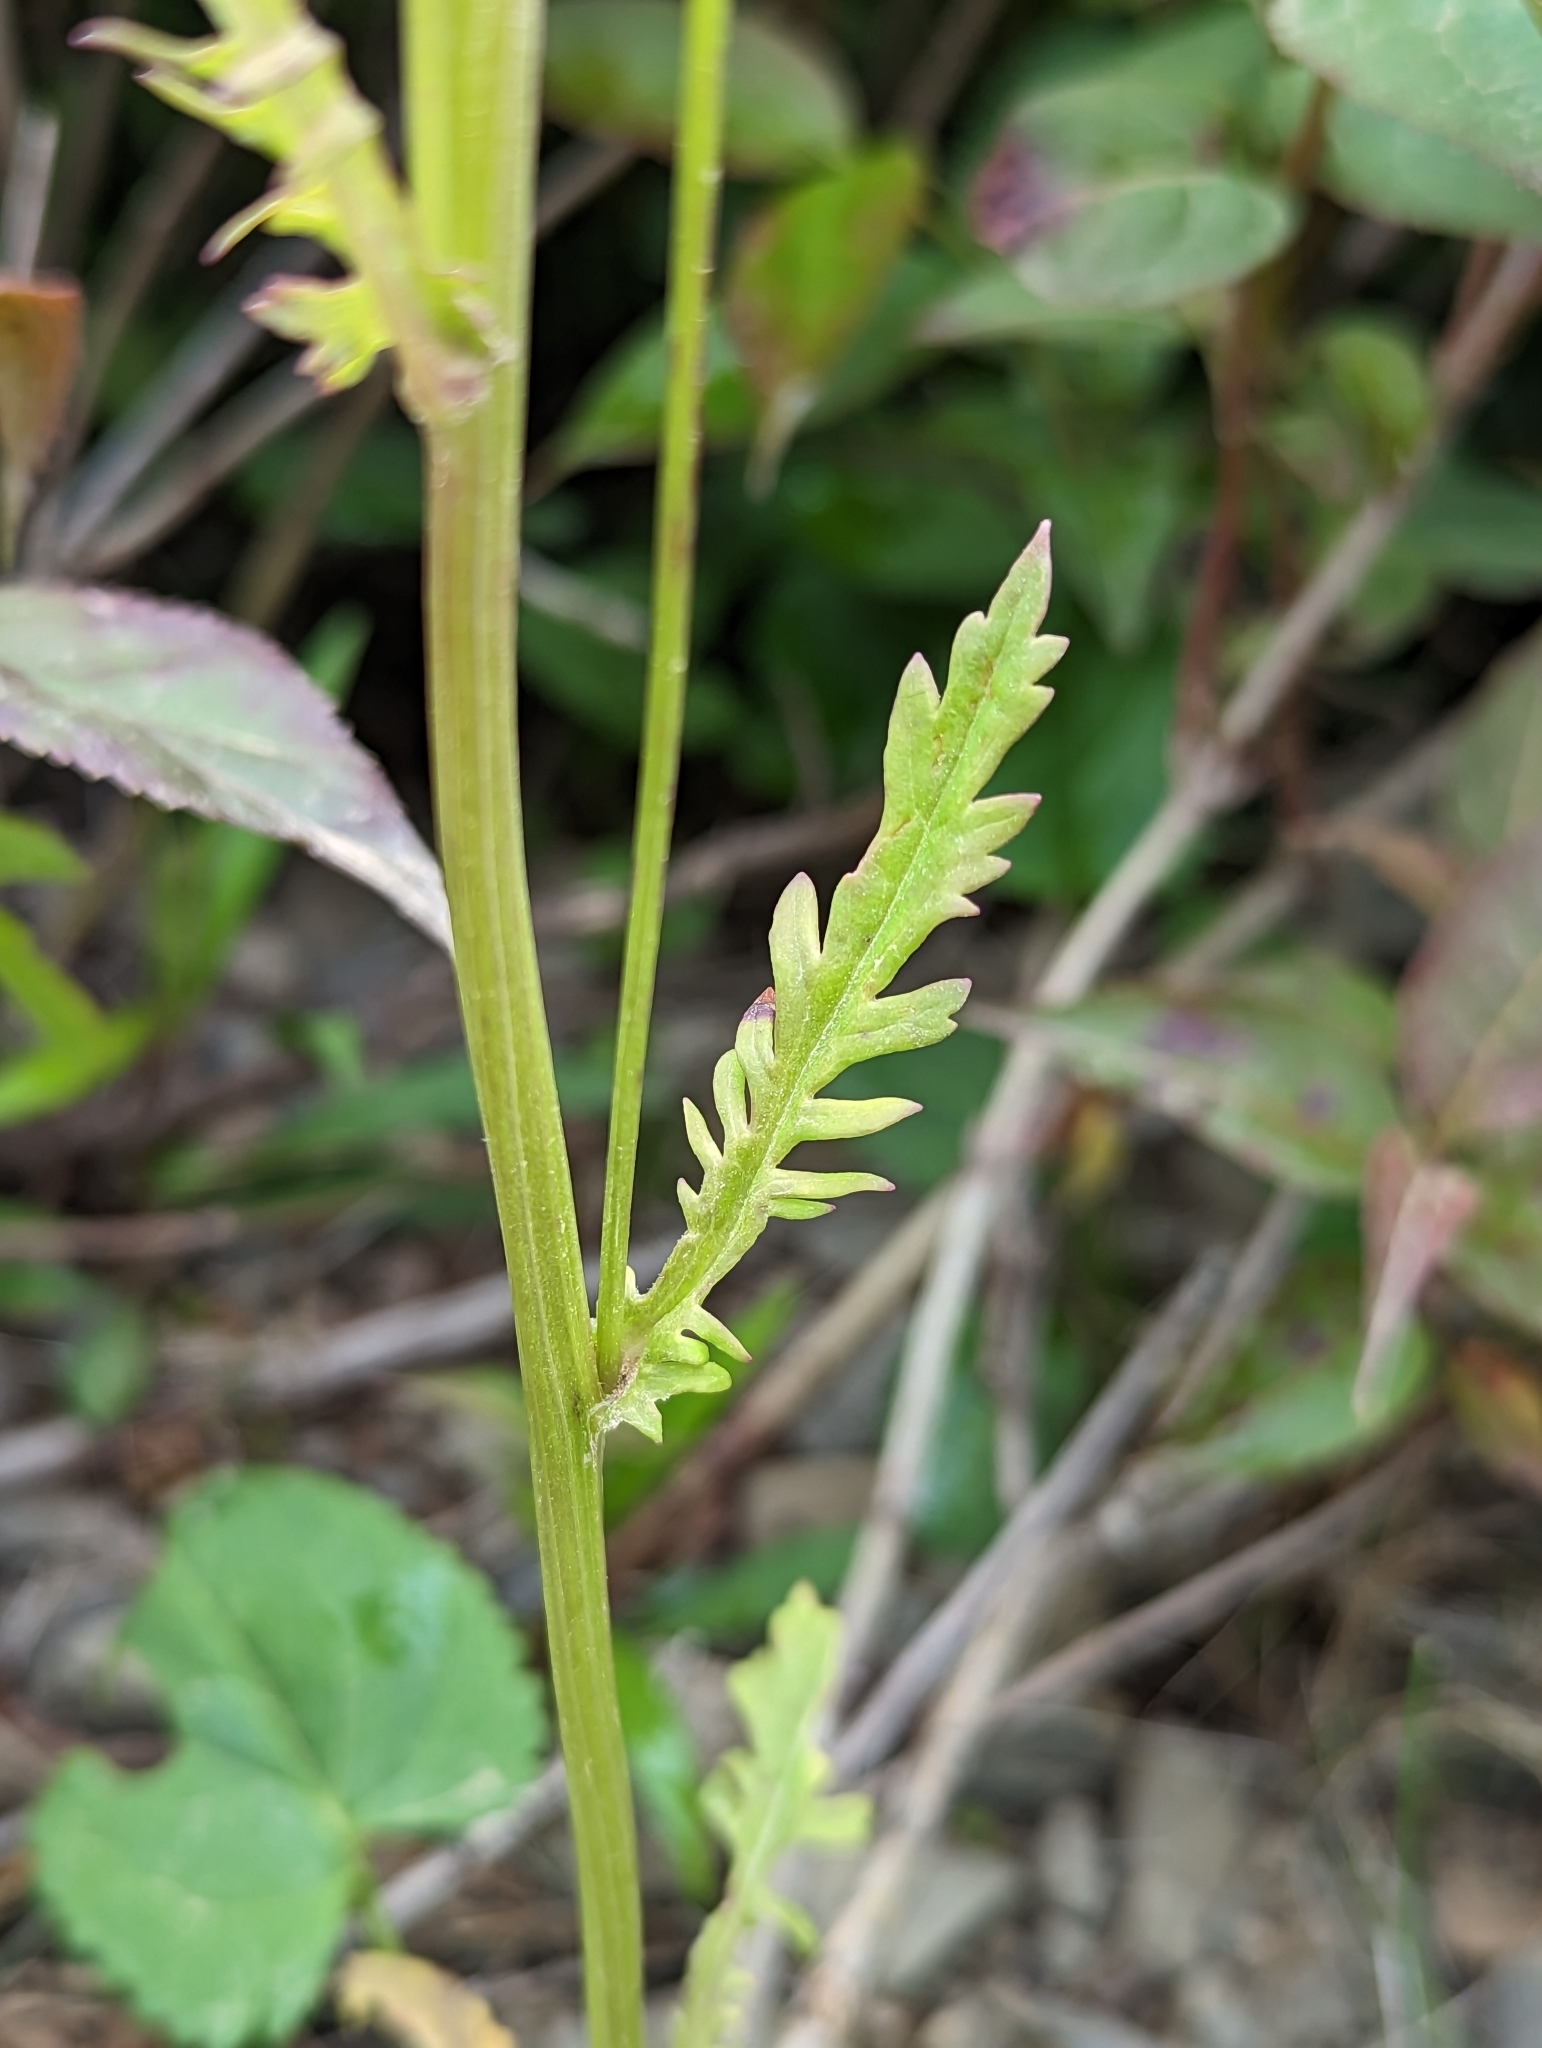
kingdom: Plantae
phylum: Tracheophyta
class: Magnoliopsida
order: Asterales
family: Asteraceae
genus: Packera
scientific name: Packera aurea
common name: Golden groundsel
